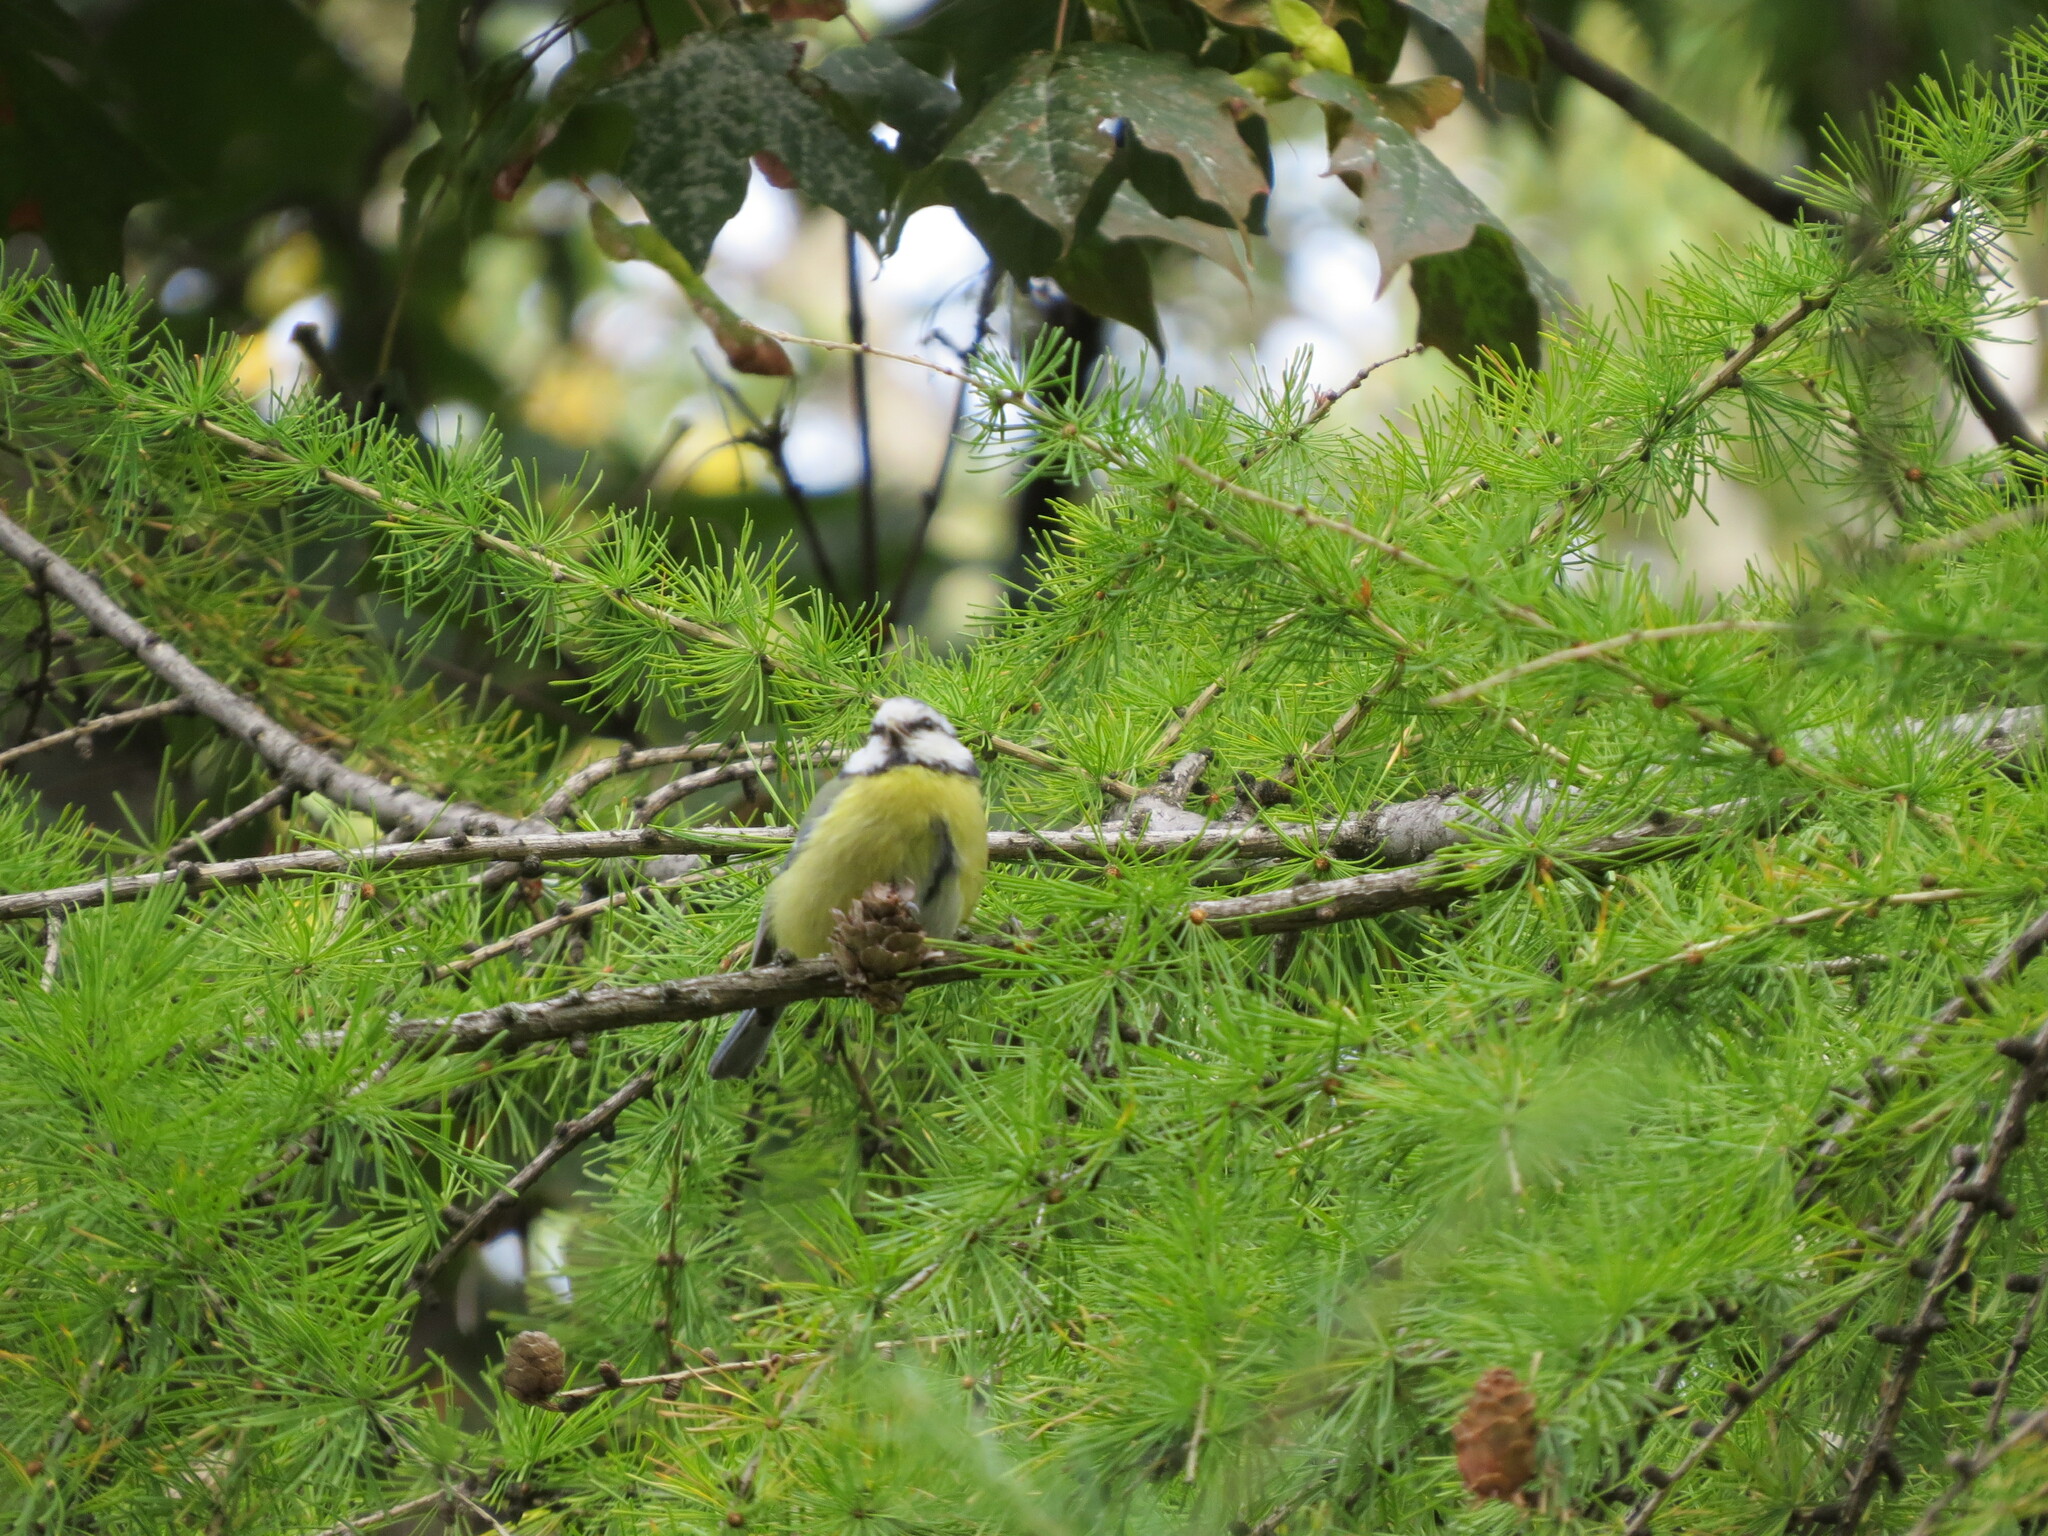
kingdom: Animalia
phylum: Chordata
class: Aves
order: Passeriformes
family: Paridae
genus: Cyanistes
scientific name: Cyanistes caeruleus
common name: Eurasian blue tit
